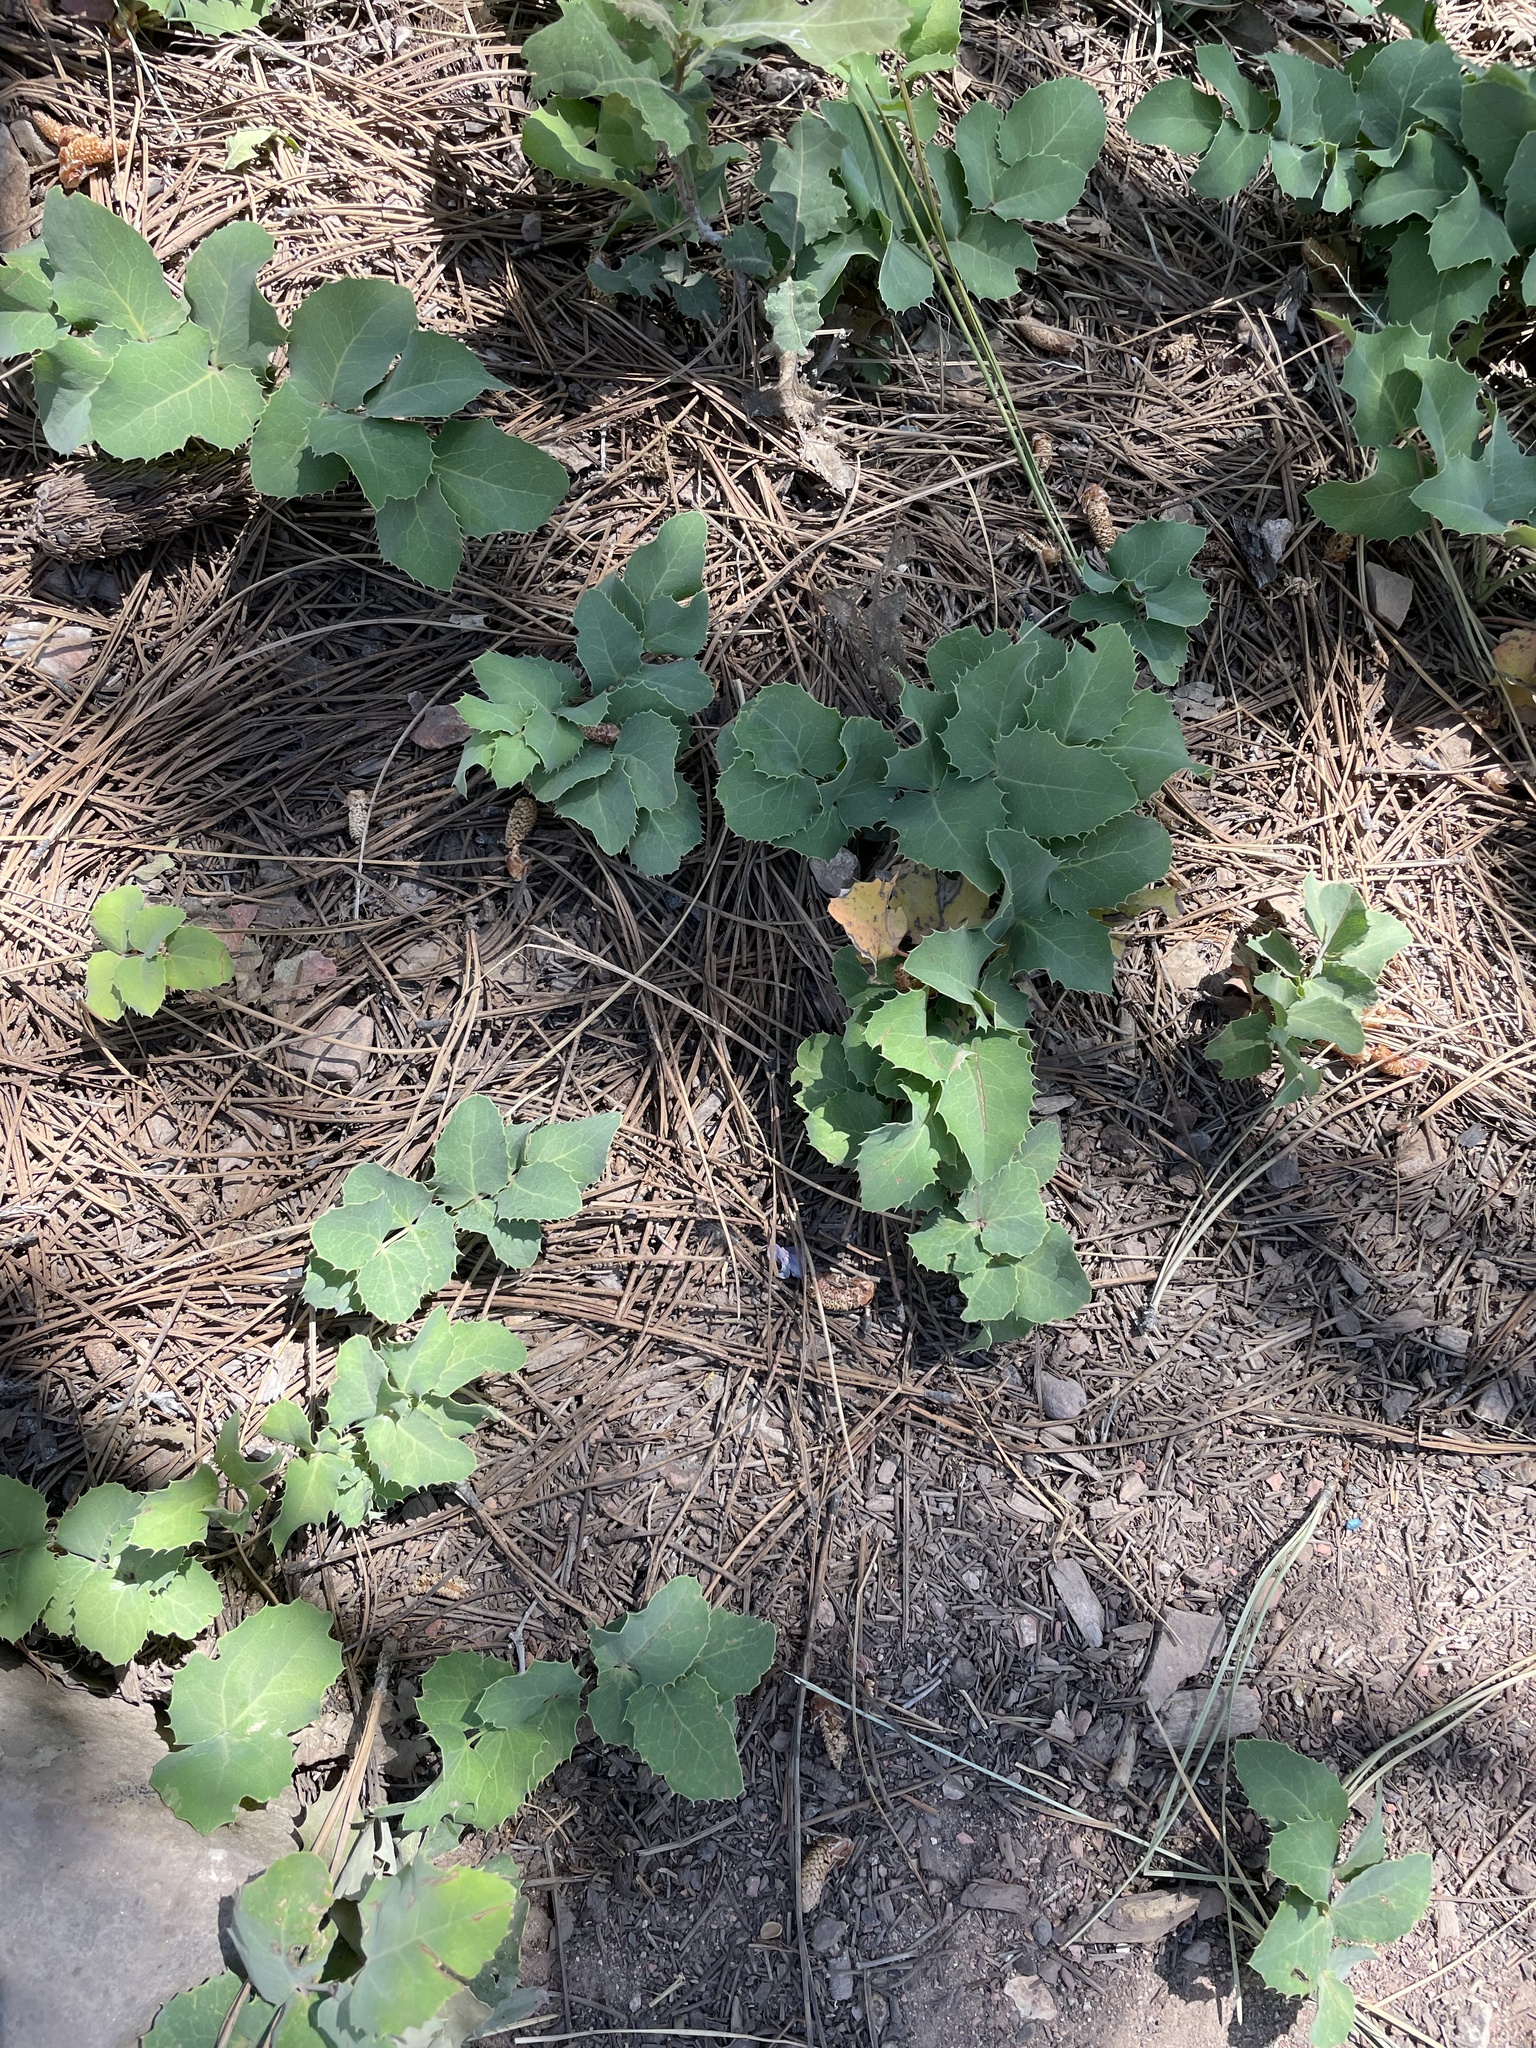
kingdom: Plantae
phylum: Tracheophyta
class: Magnoliopsida
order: Ranunculales
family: Berberidaceae
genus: Mahonia
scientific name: Mahonia repens
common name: Creeping oregon-grape
